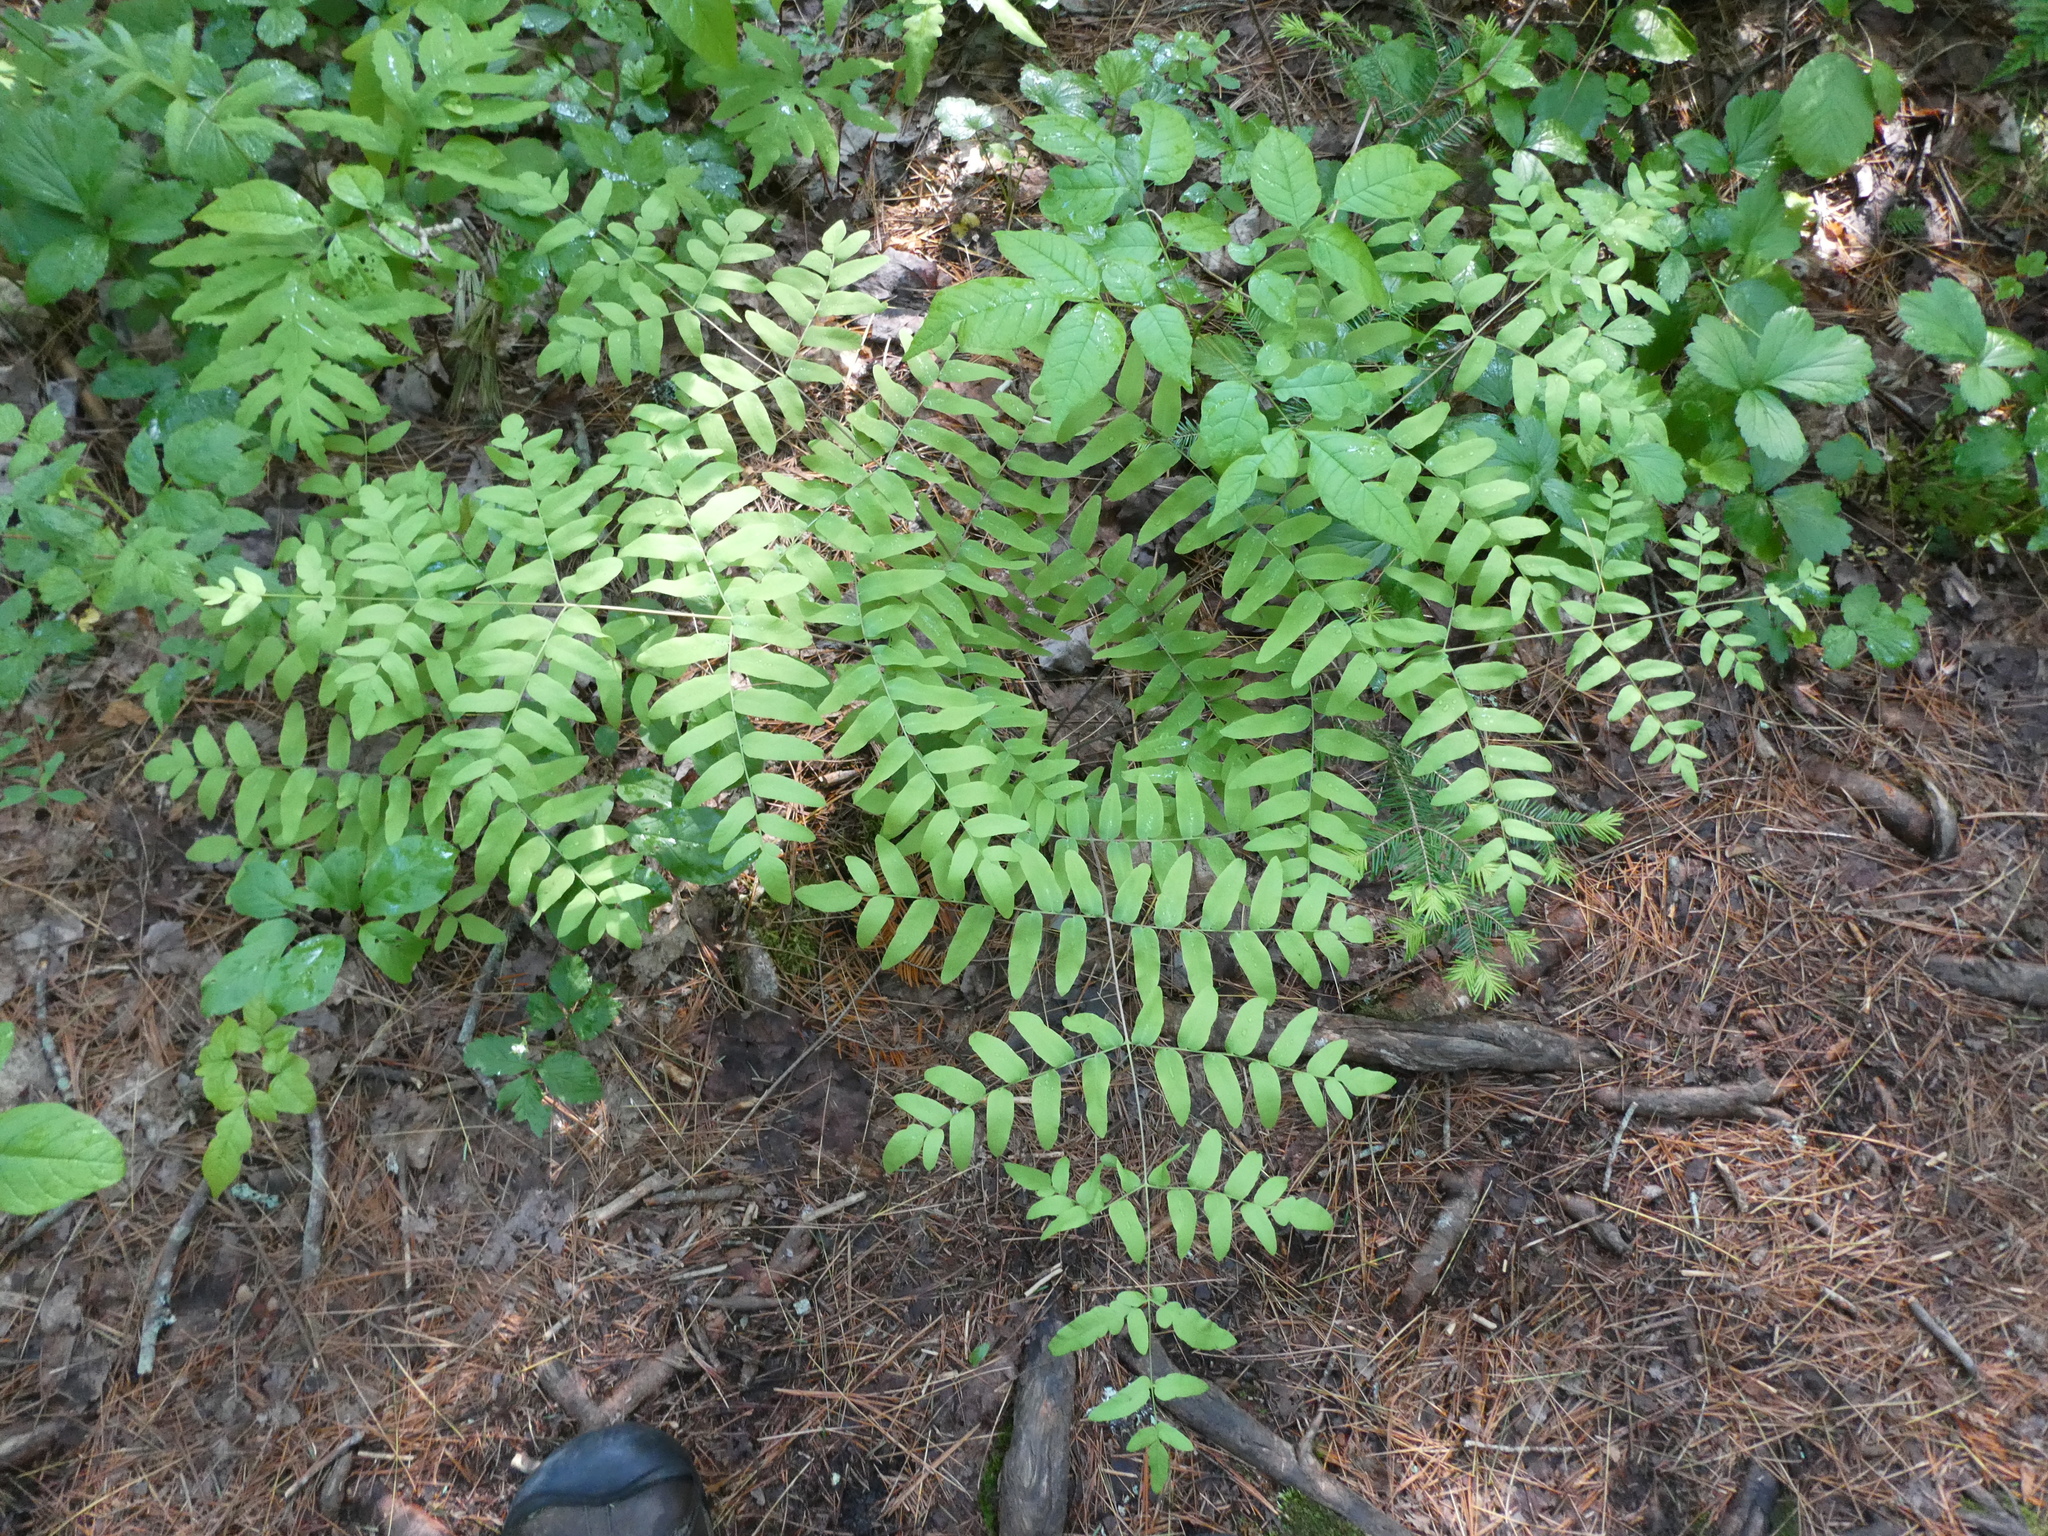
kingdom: Plantae
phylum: Tracheophyta
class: Polypodiopsida
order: Osmundales
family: Osmundaceae
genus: Osmunda
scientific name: Osmunda spectabilis
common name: American royal fern
